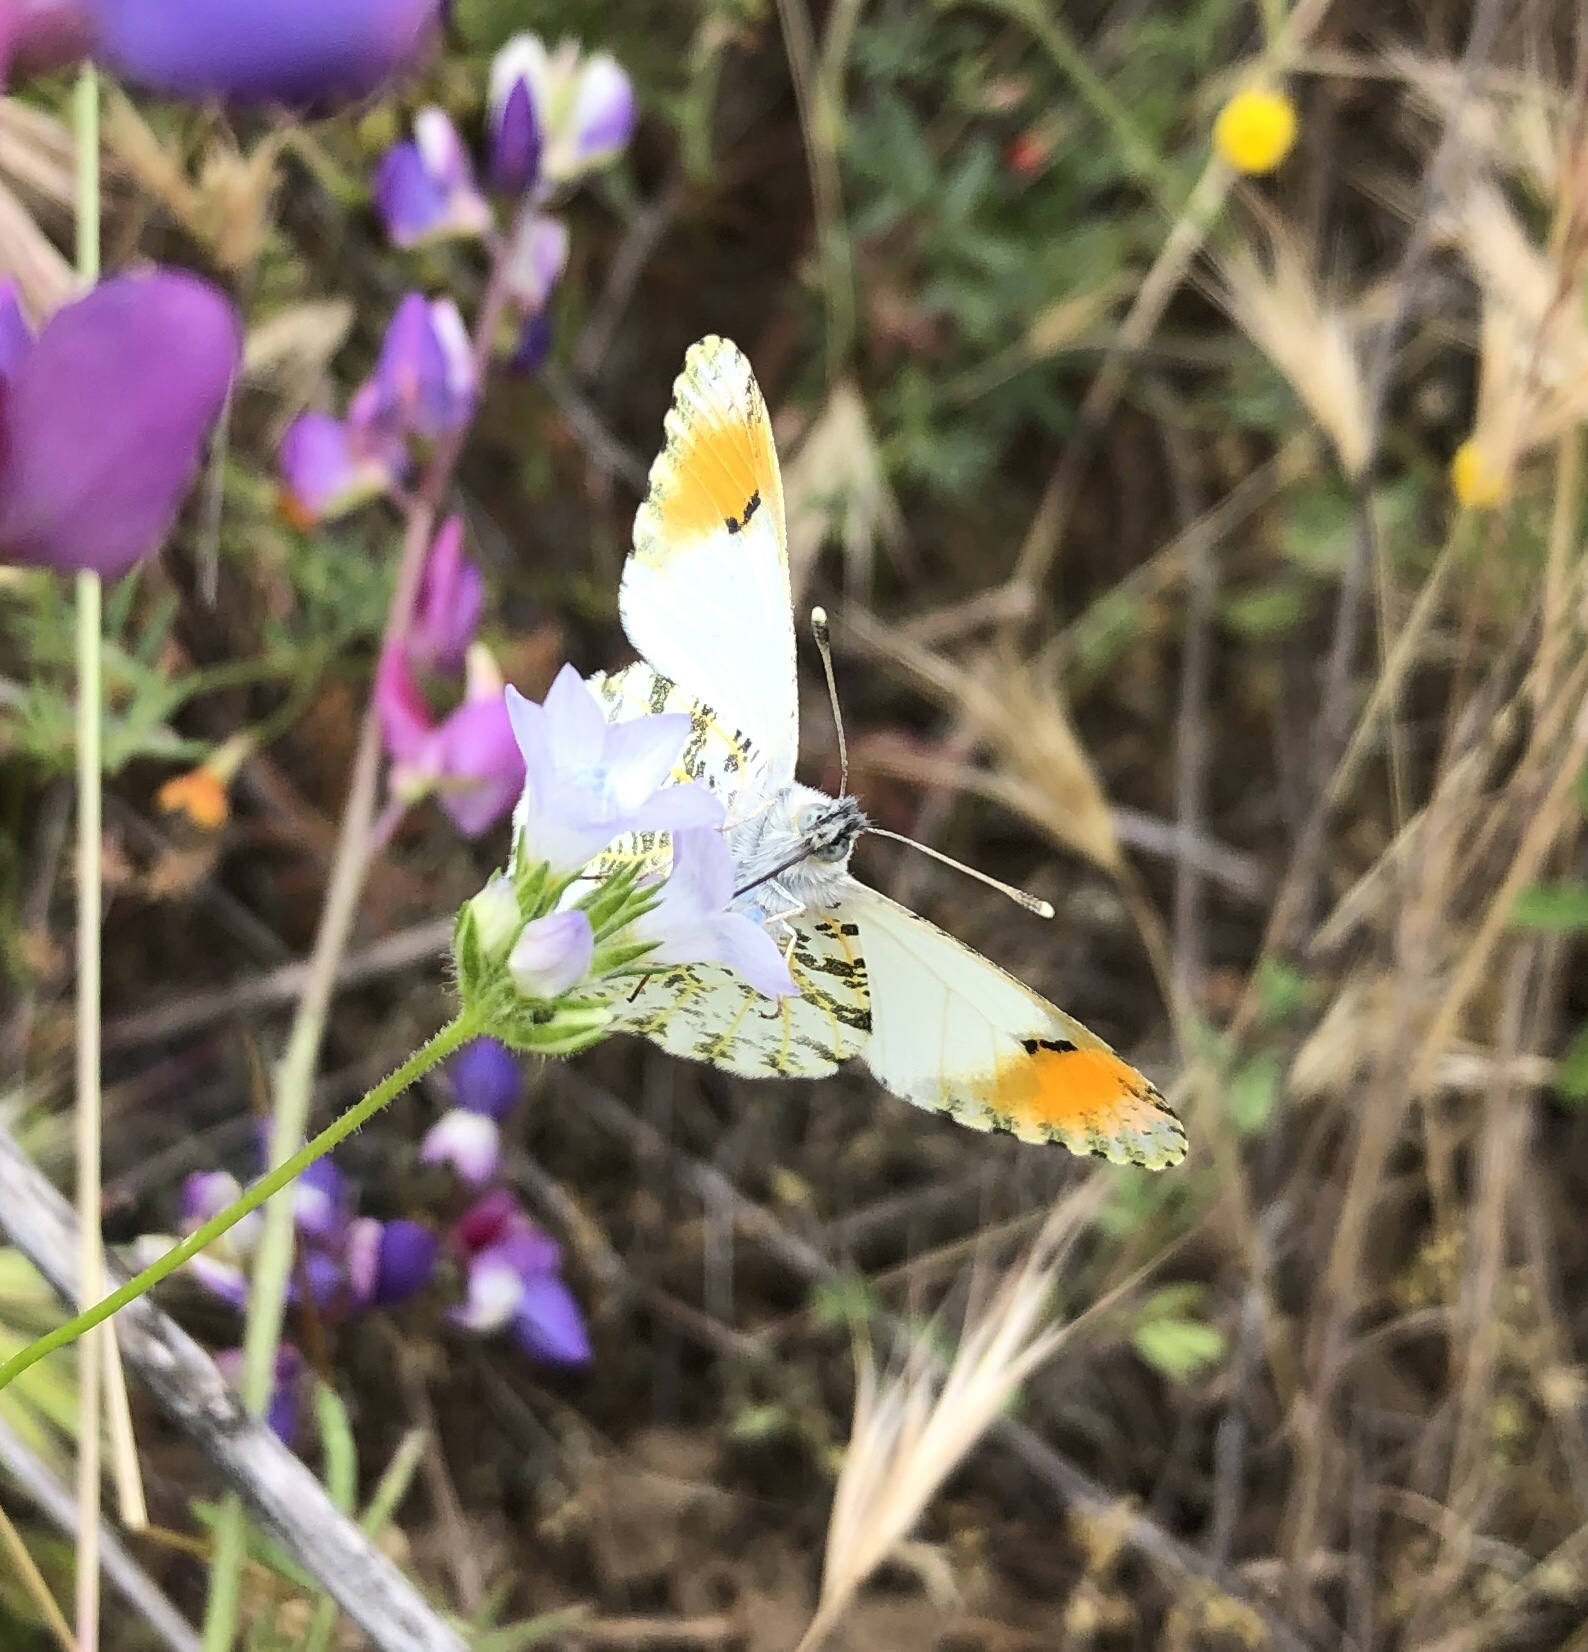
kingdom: Animalia
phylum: Arthropoda
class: Insecta
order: Lepidoptera
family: Pieridae
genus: Anthocharis
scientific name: Anthocharis sara
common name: Sara's orangetip
